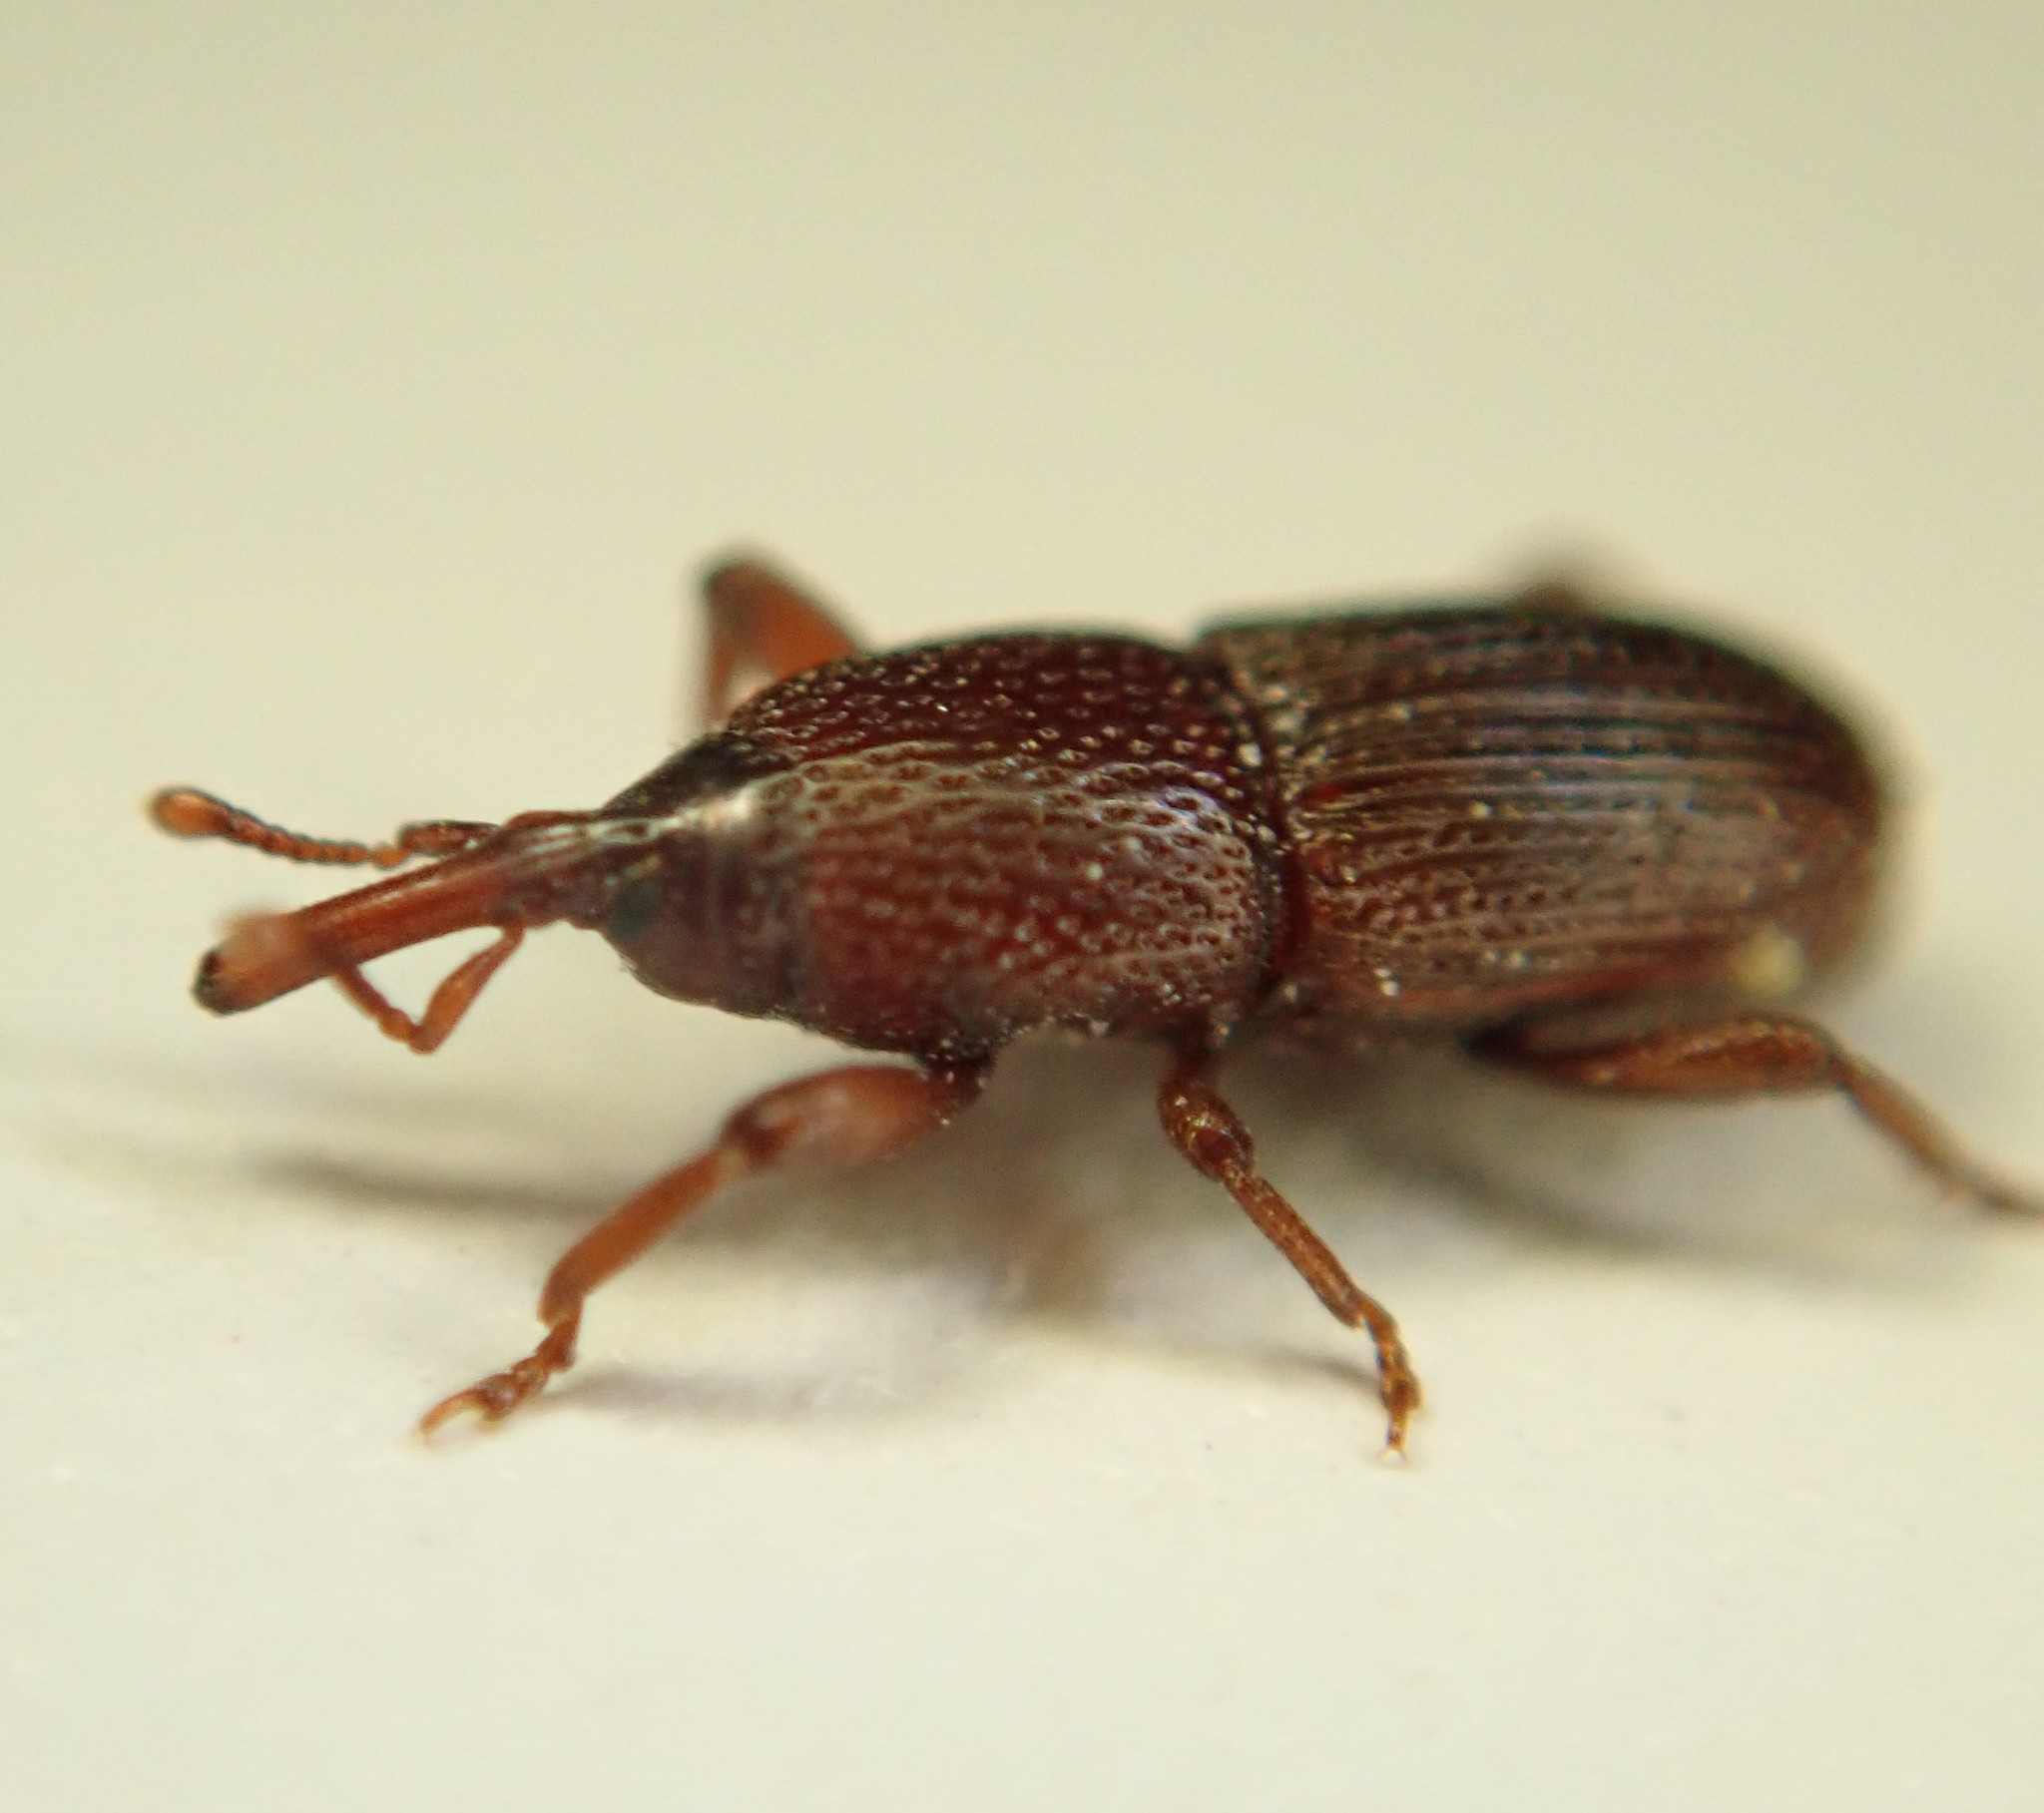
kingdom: Animalia
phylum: Arthropoda
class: Insecta
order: Coleoptera
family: Dryophthoridae
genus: Sitophilus
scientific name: Sitophilus granarius
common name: Granary weevil
